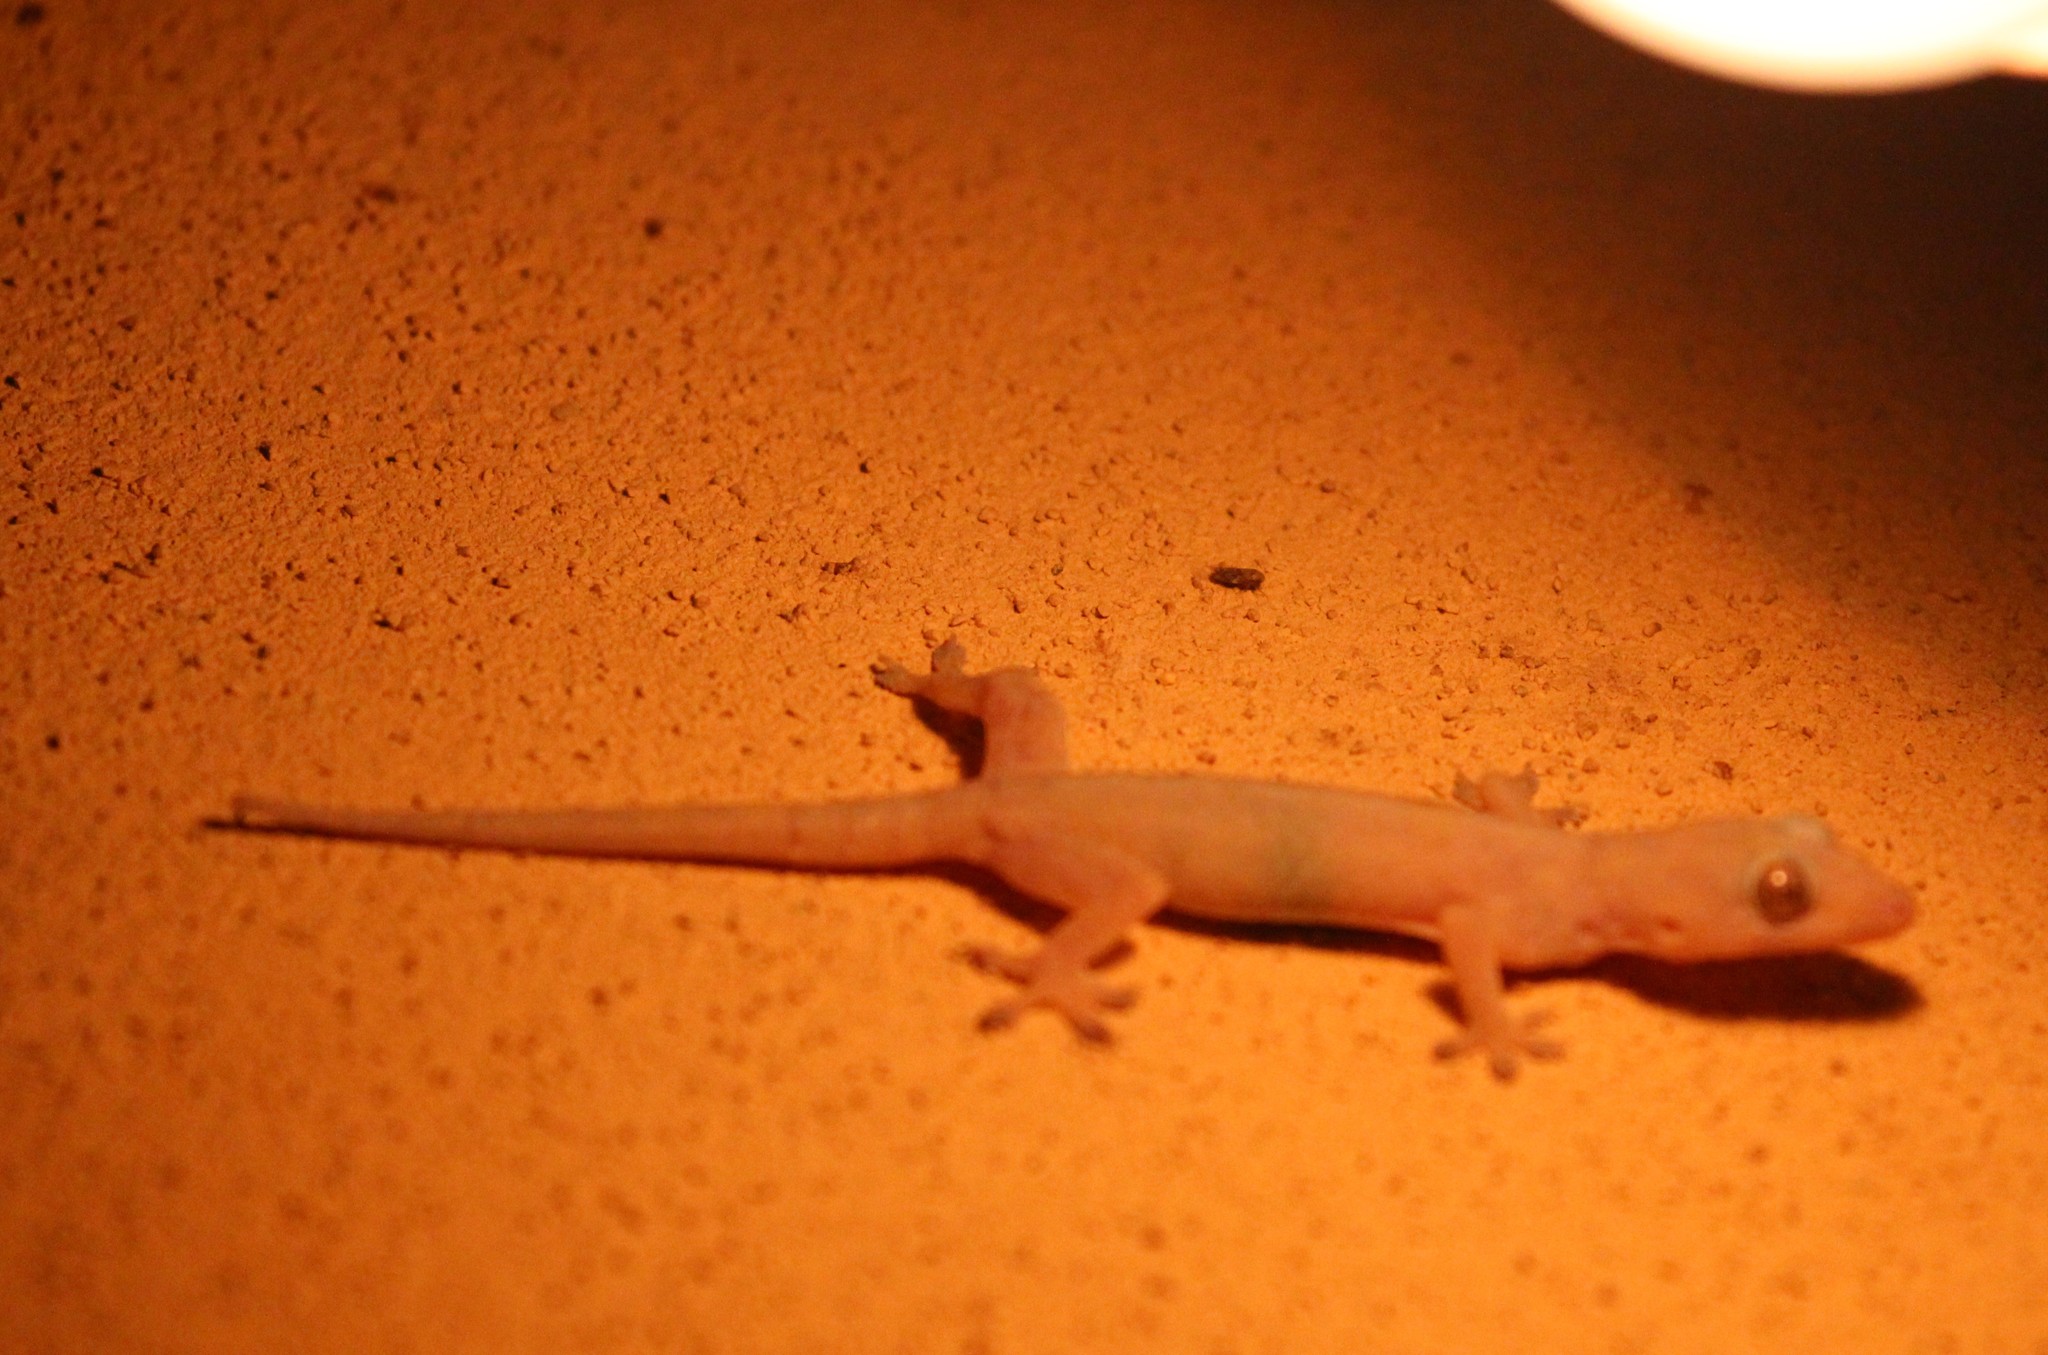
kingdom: Animalia
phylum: Chordata
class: Squamata
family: Gekkonidae
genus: Hemidactylus
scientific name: Hemidactylus frenatus
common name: Common house gecko
